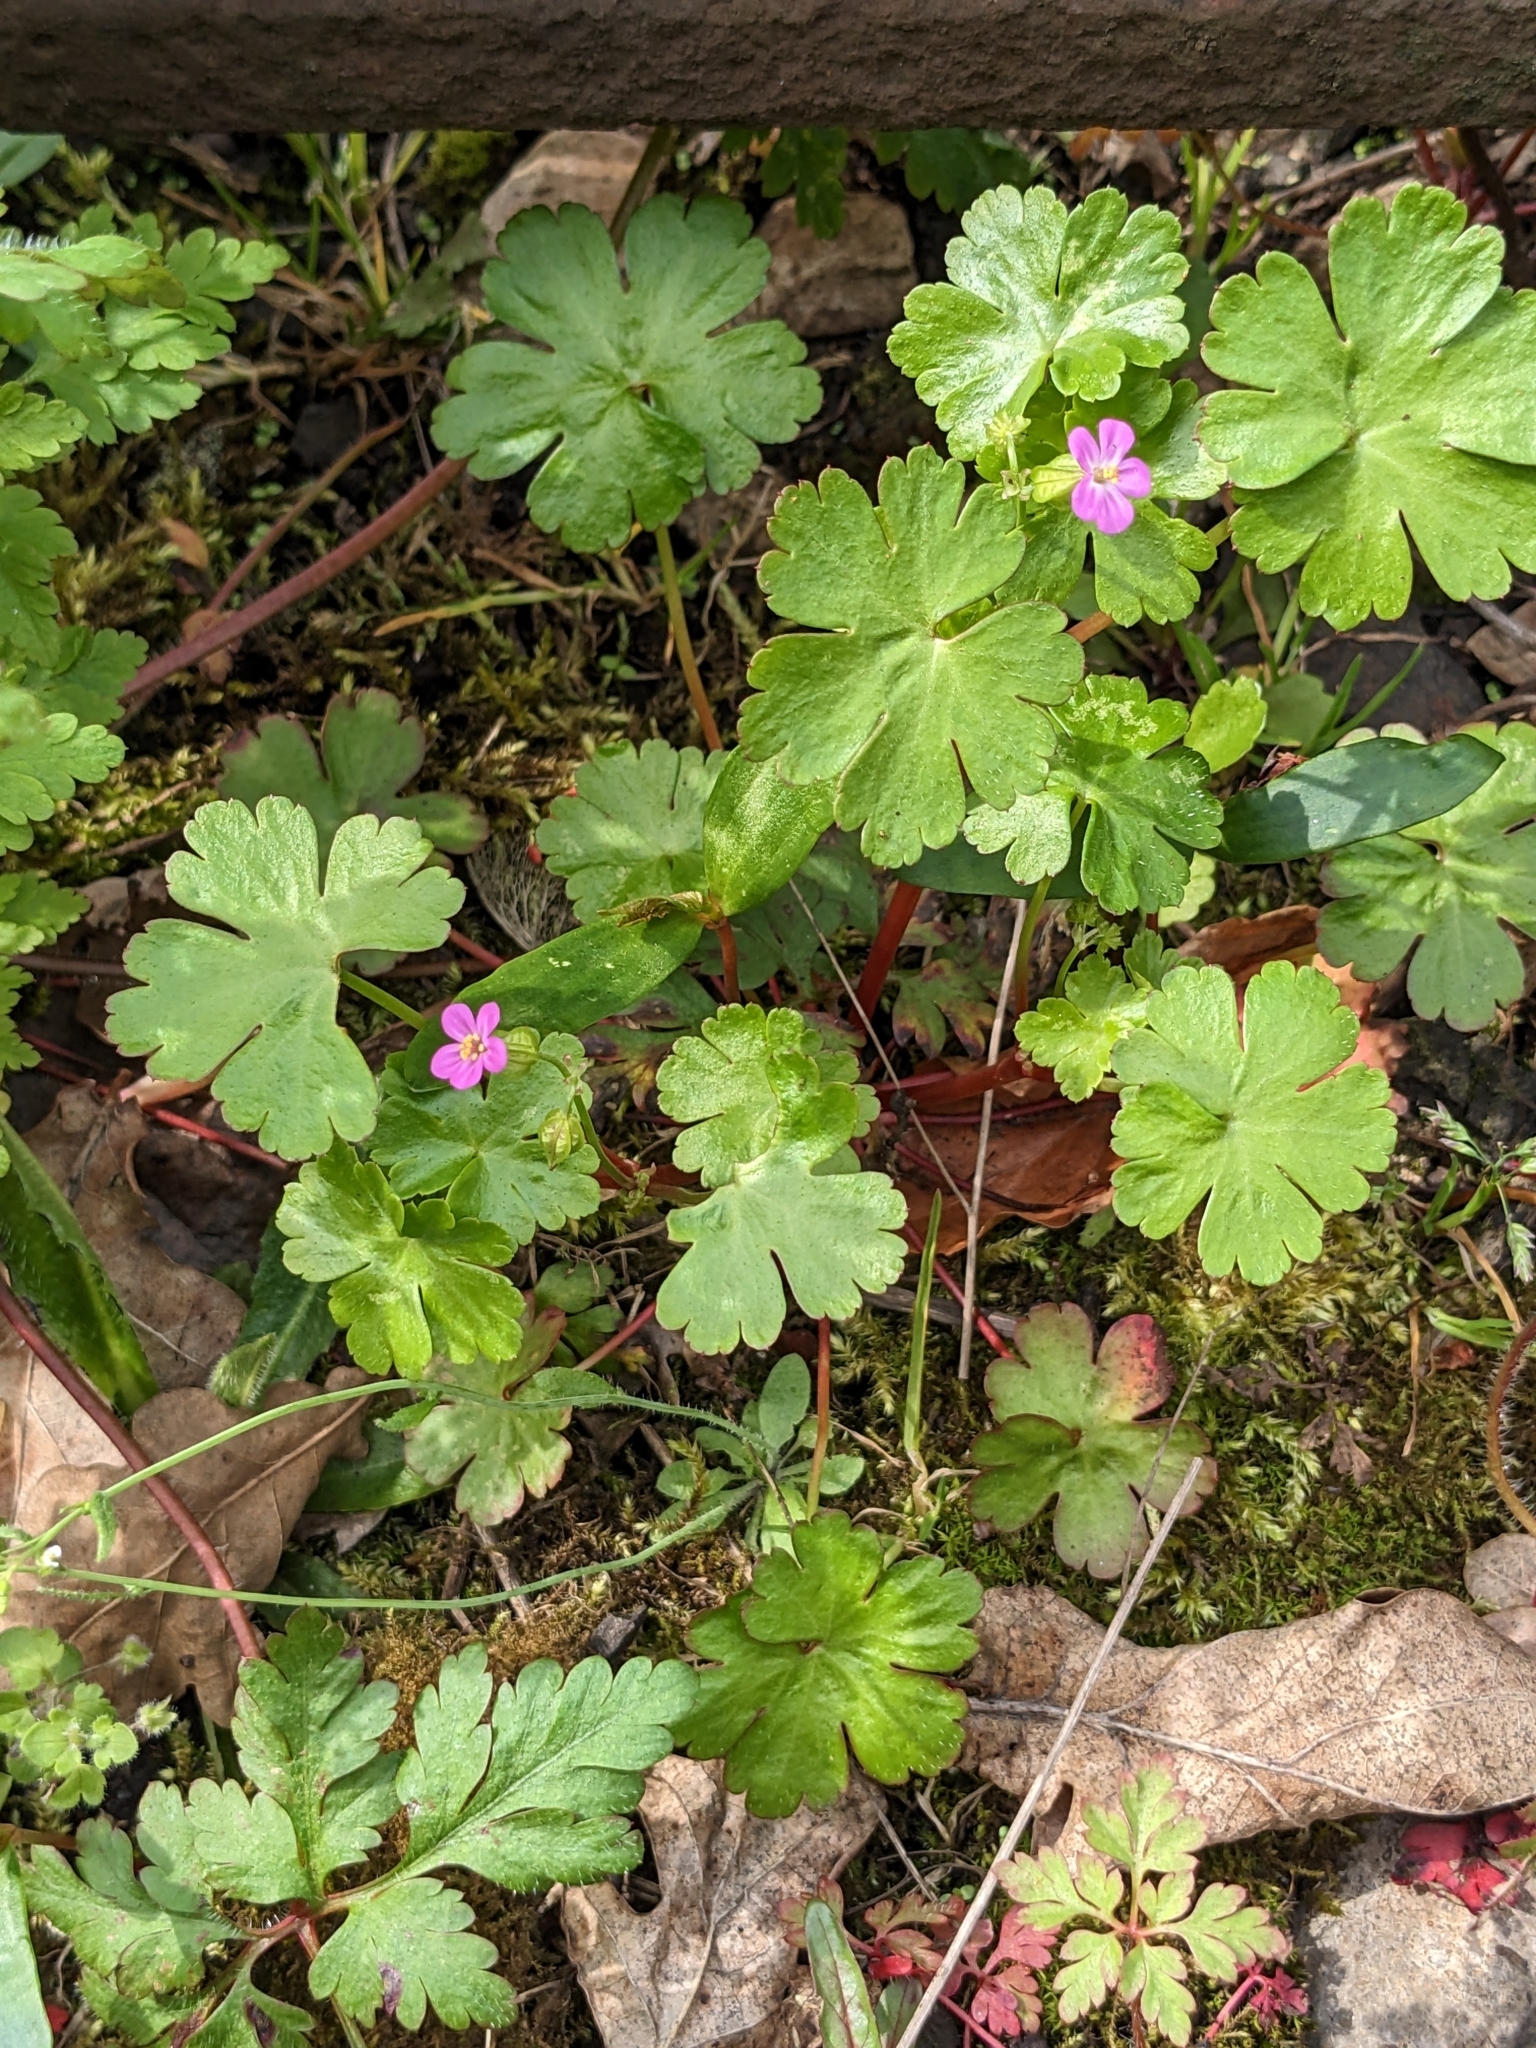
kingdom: Plantae
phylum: Tracheophyta
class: Magnoliopsida
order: Geraniales
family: Geraniaceae
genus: Geranium
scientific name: Geranium lucidum
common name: Shining crane's-bill
